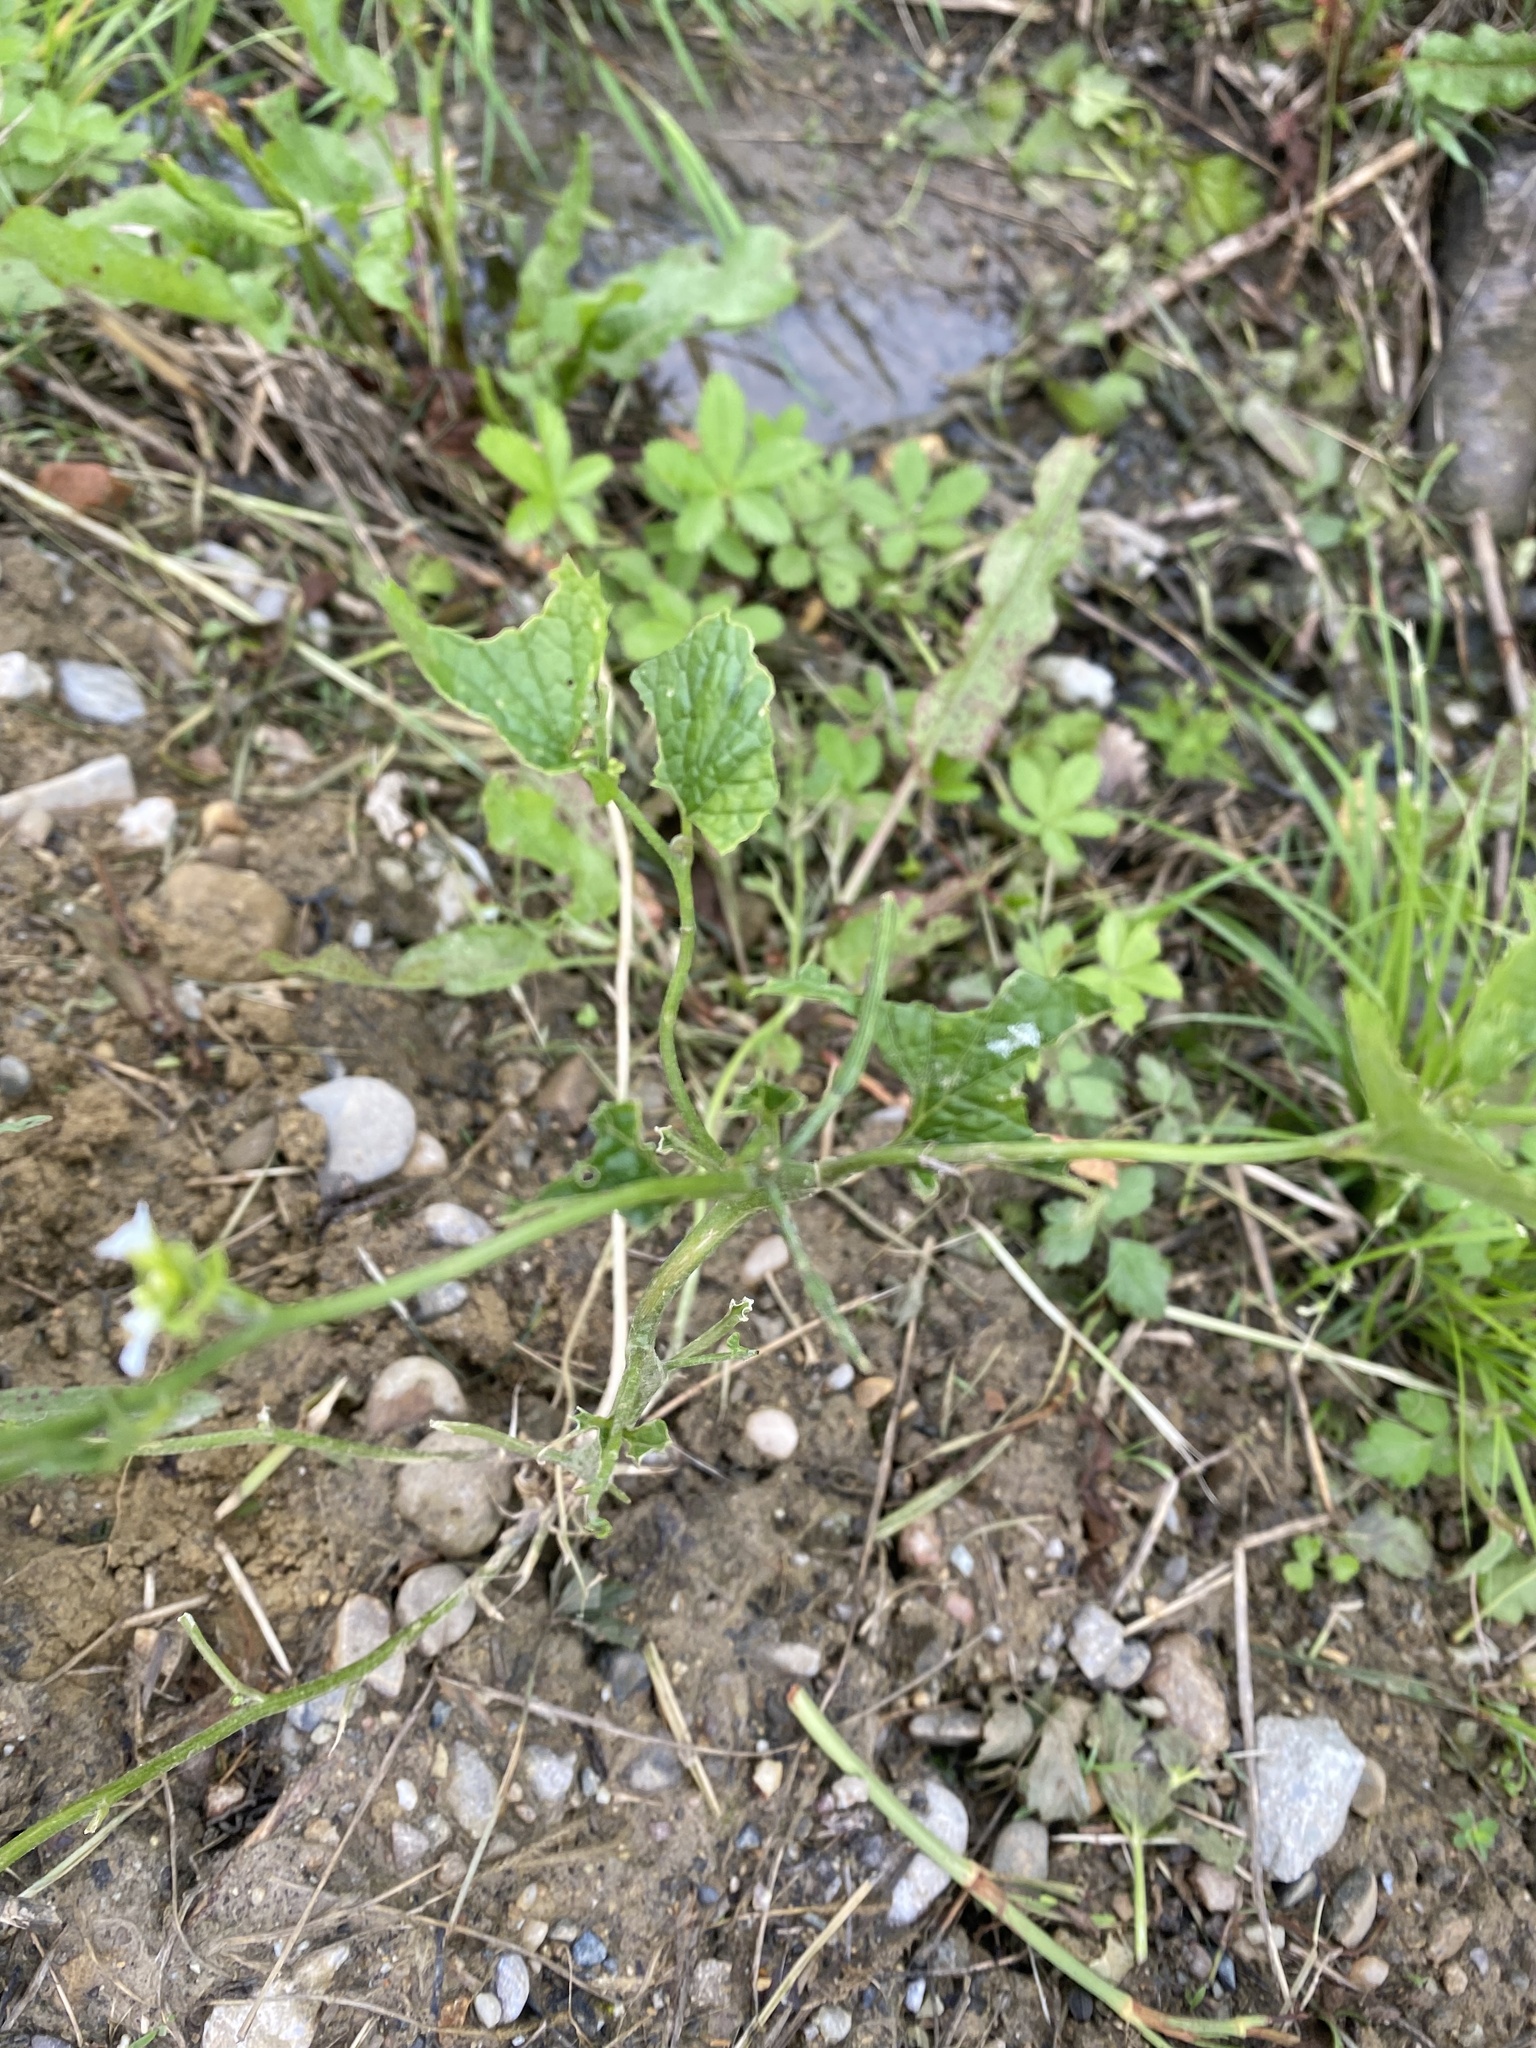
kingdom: Plantae
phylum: Tracheophyta
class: Magnoliopsida
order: Brassicales
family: Brassicaceae
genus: Alliaria
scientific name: Alliaria petiolata
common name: Garlic mustard
